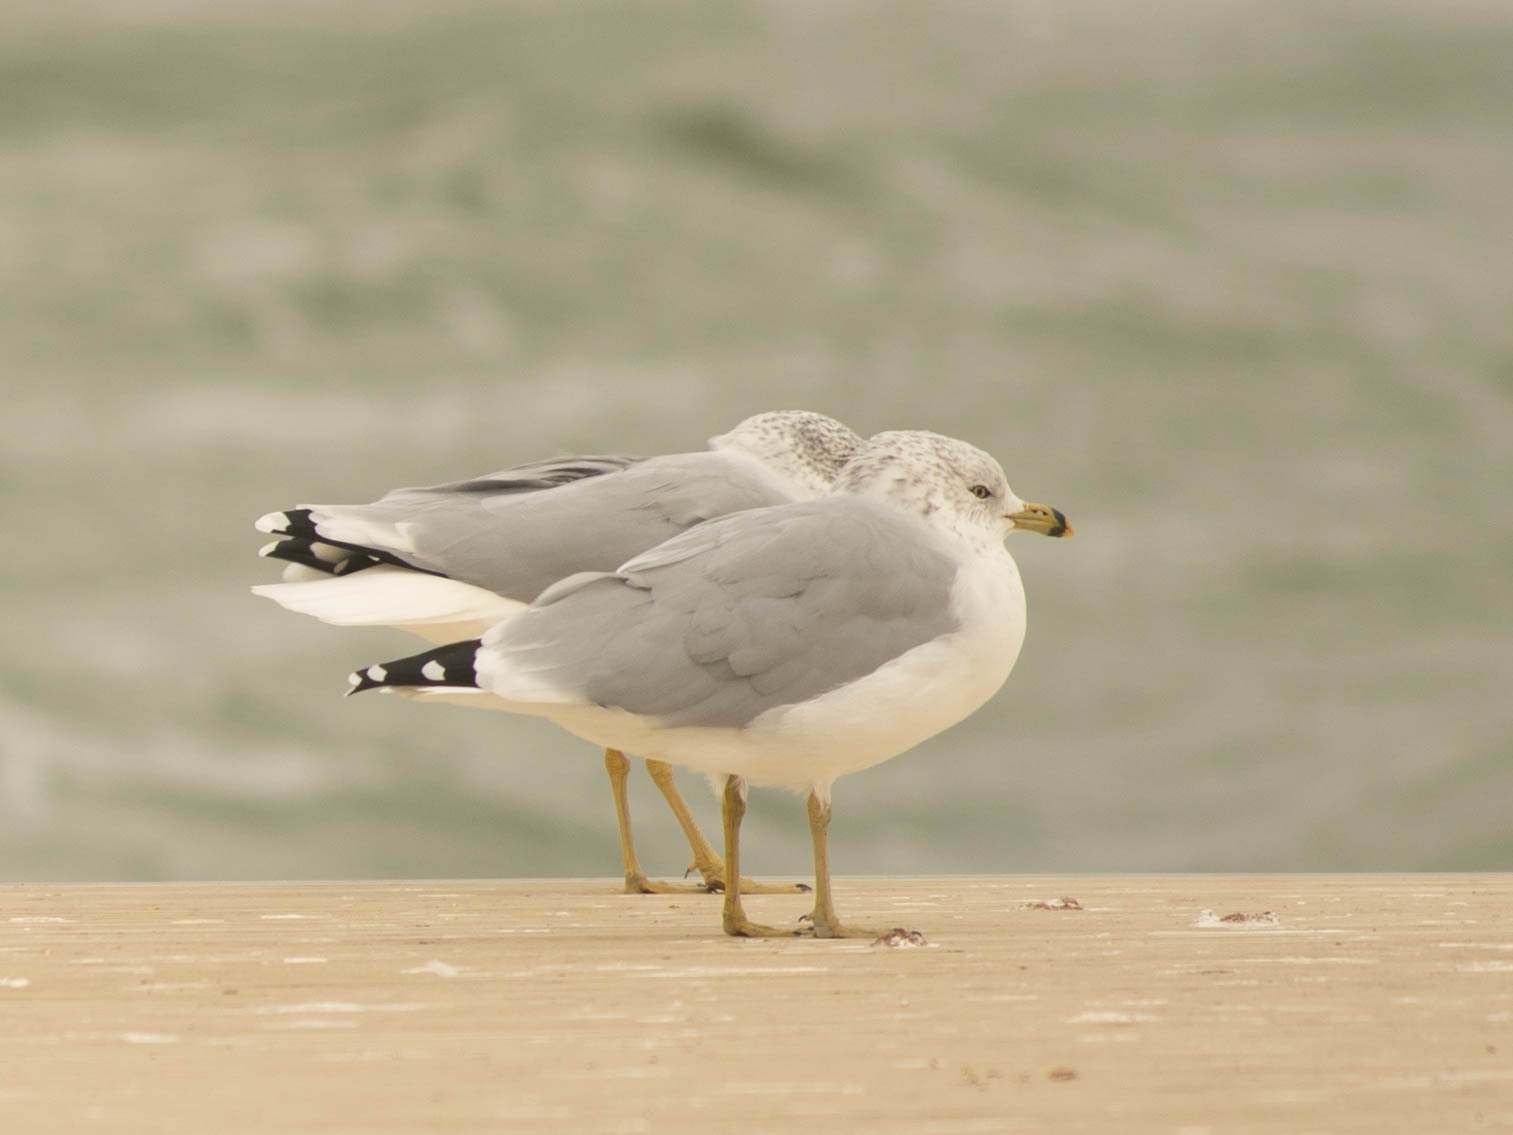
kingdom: Animalia
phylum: Chordata
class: Aves
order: Charadriiformes
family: Laridae
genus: Larus
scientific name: Larus delawarensis
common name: Ring-billed gull
